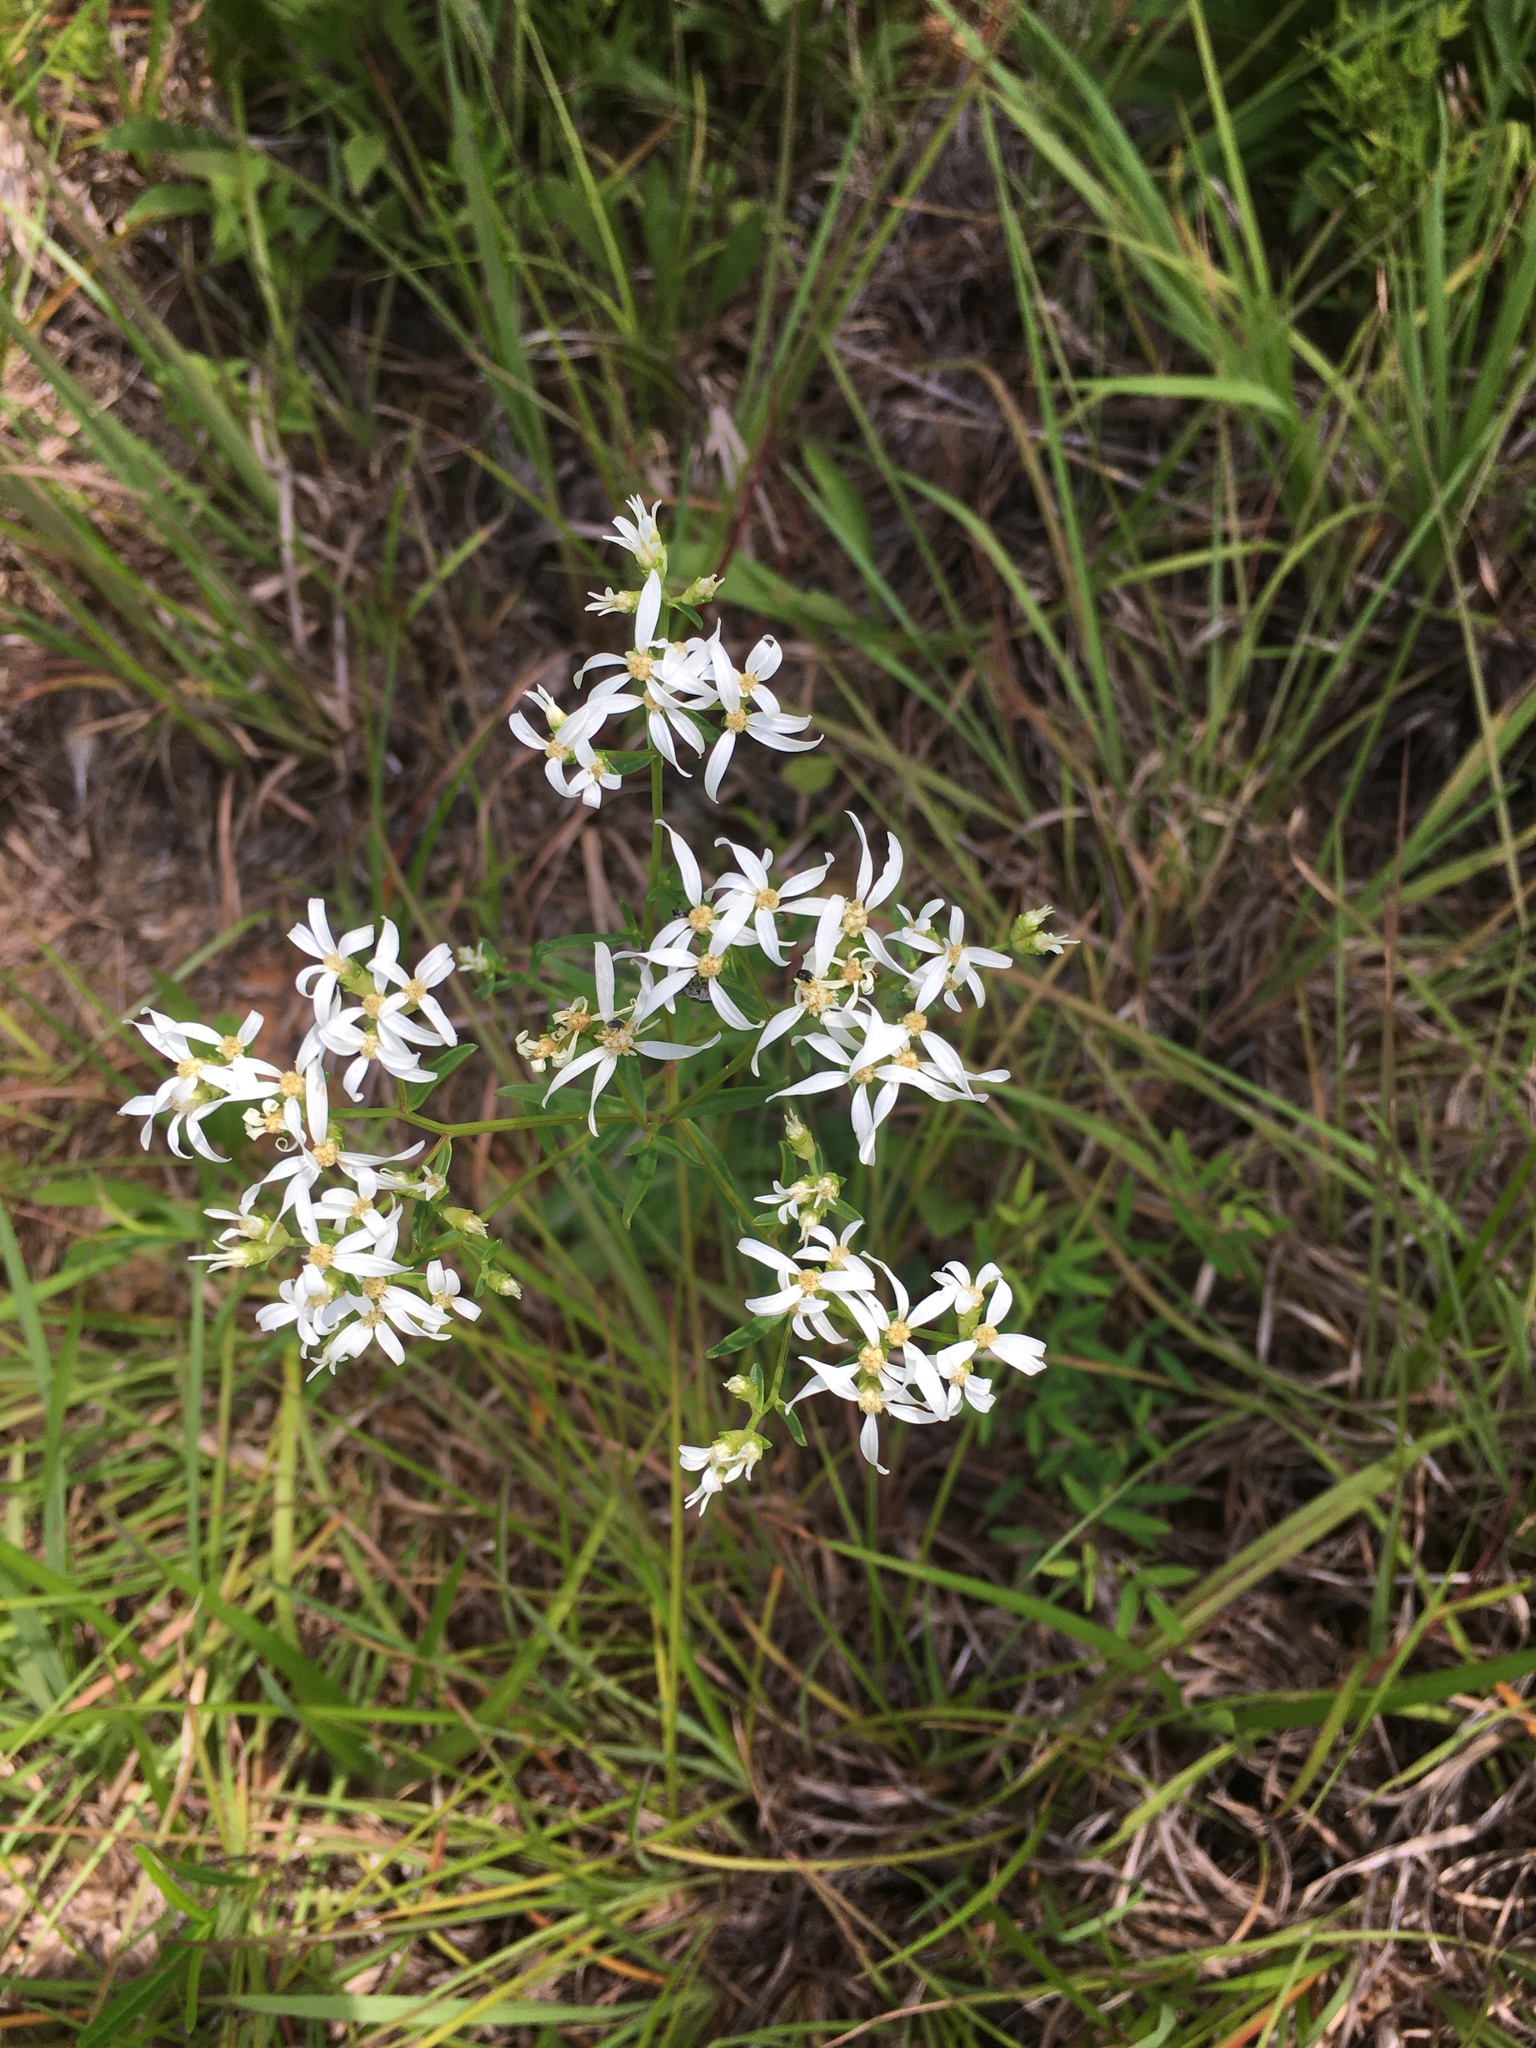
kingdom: Plantae
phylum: Tracheophyta
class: Magnoliopsida
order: Asterales
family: Asteraceae
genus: Sericocarpus
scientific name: Sericocarpus linifolius
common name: Narrow-leaf aster
